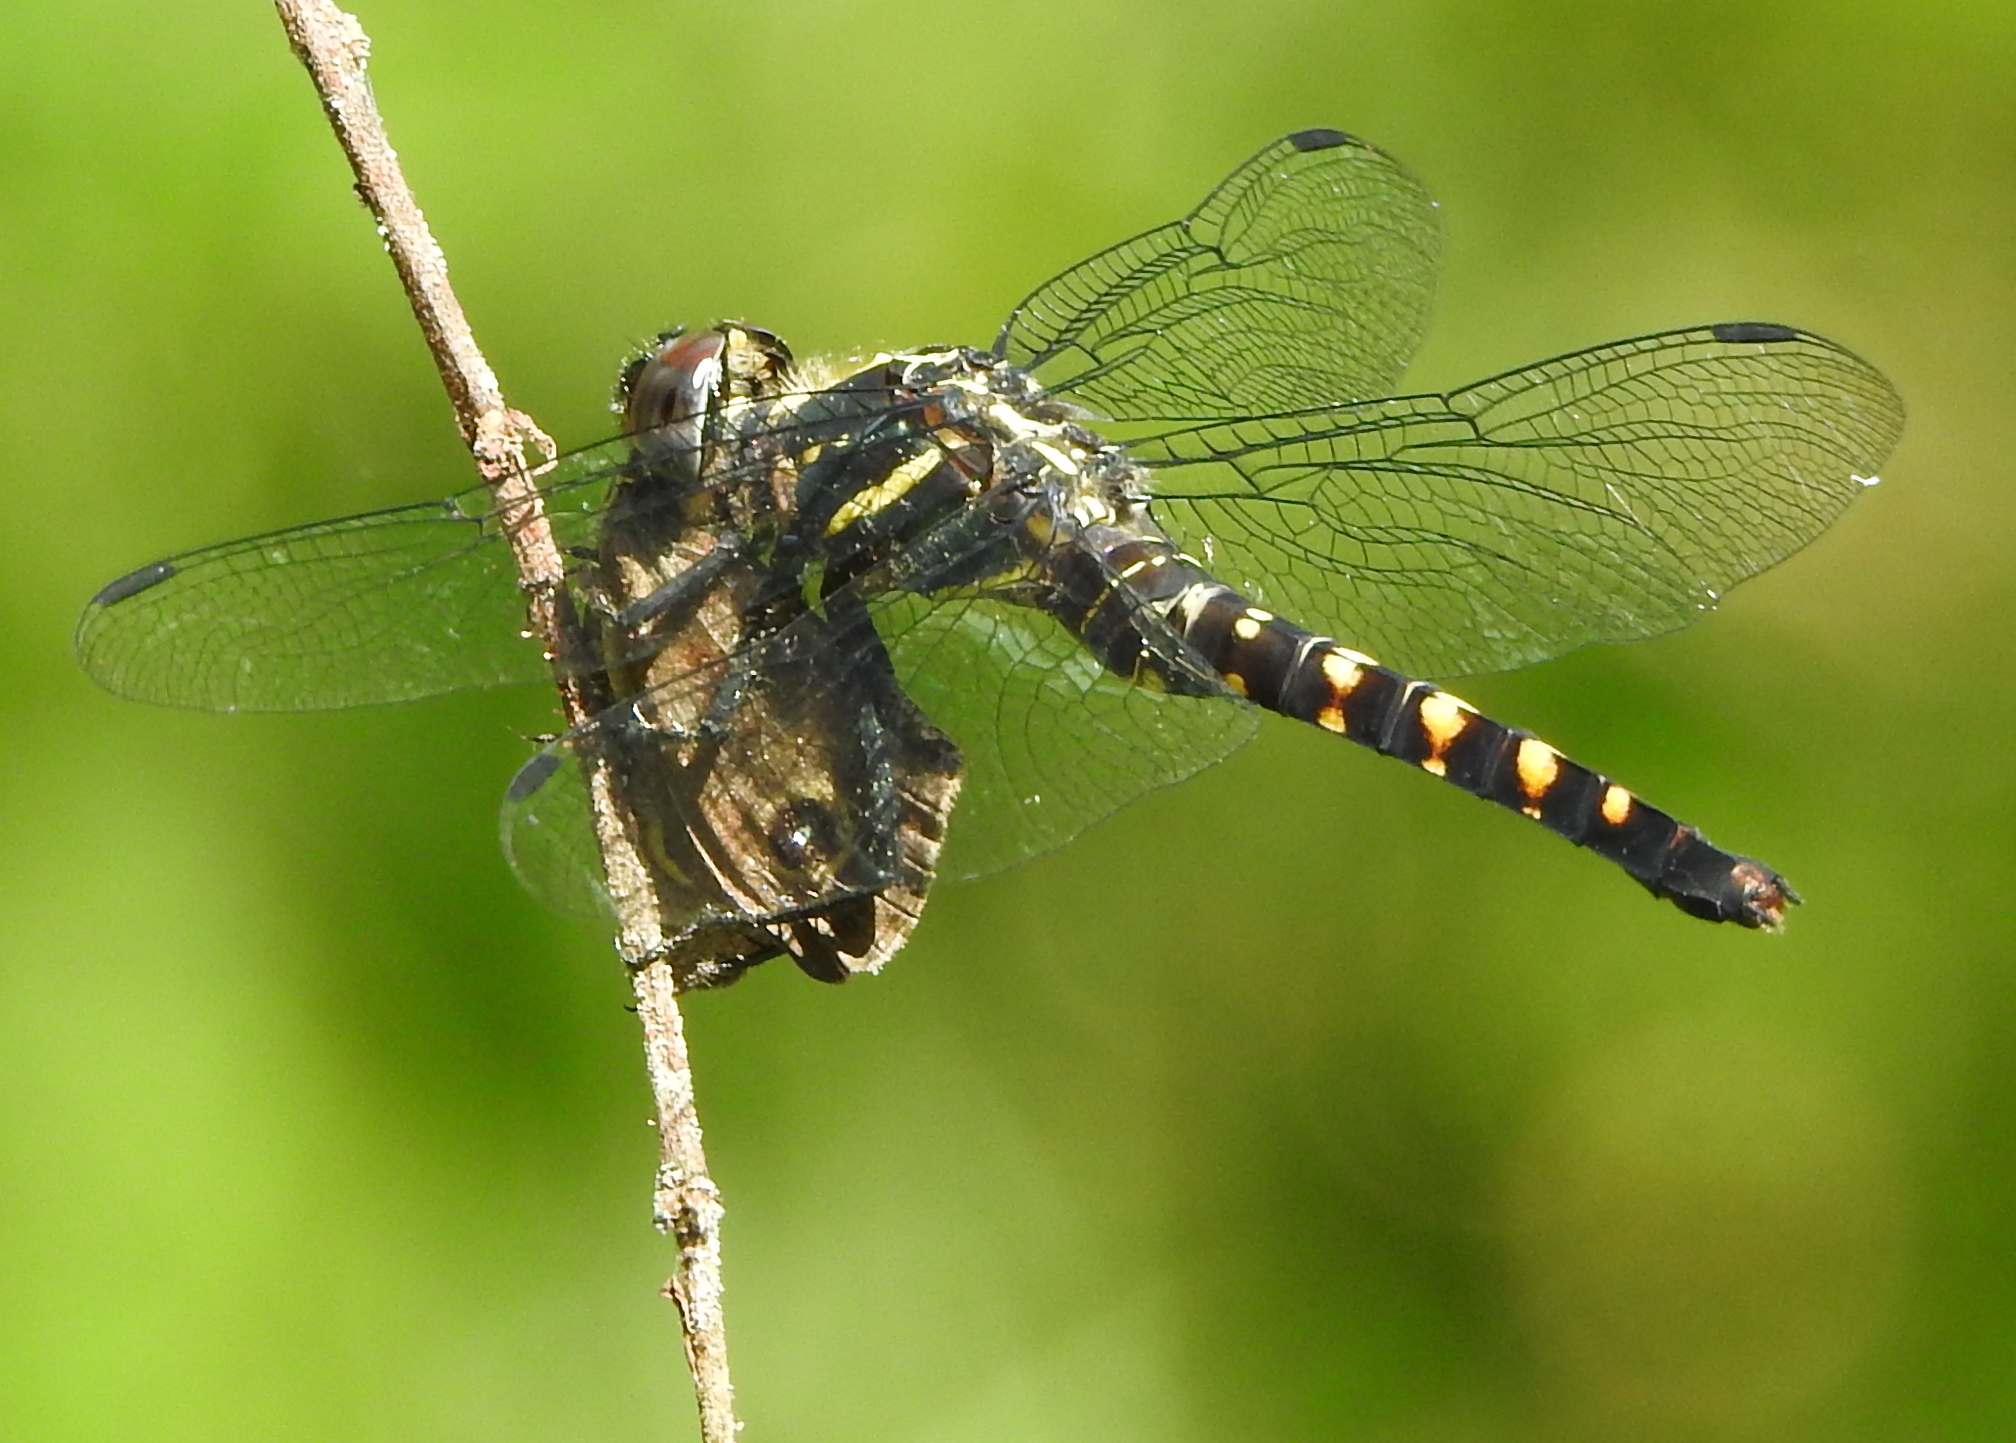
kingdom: Animalia
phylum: Arthropoda
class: Insecta
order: Odonata
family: Libellulidae
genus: Onychothemis
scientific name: Onychothemis testacea
